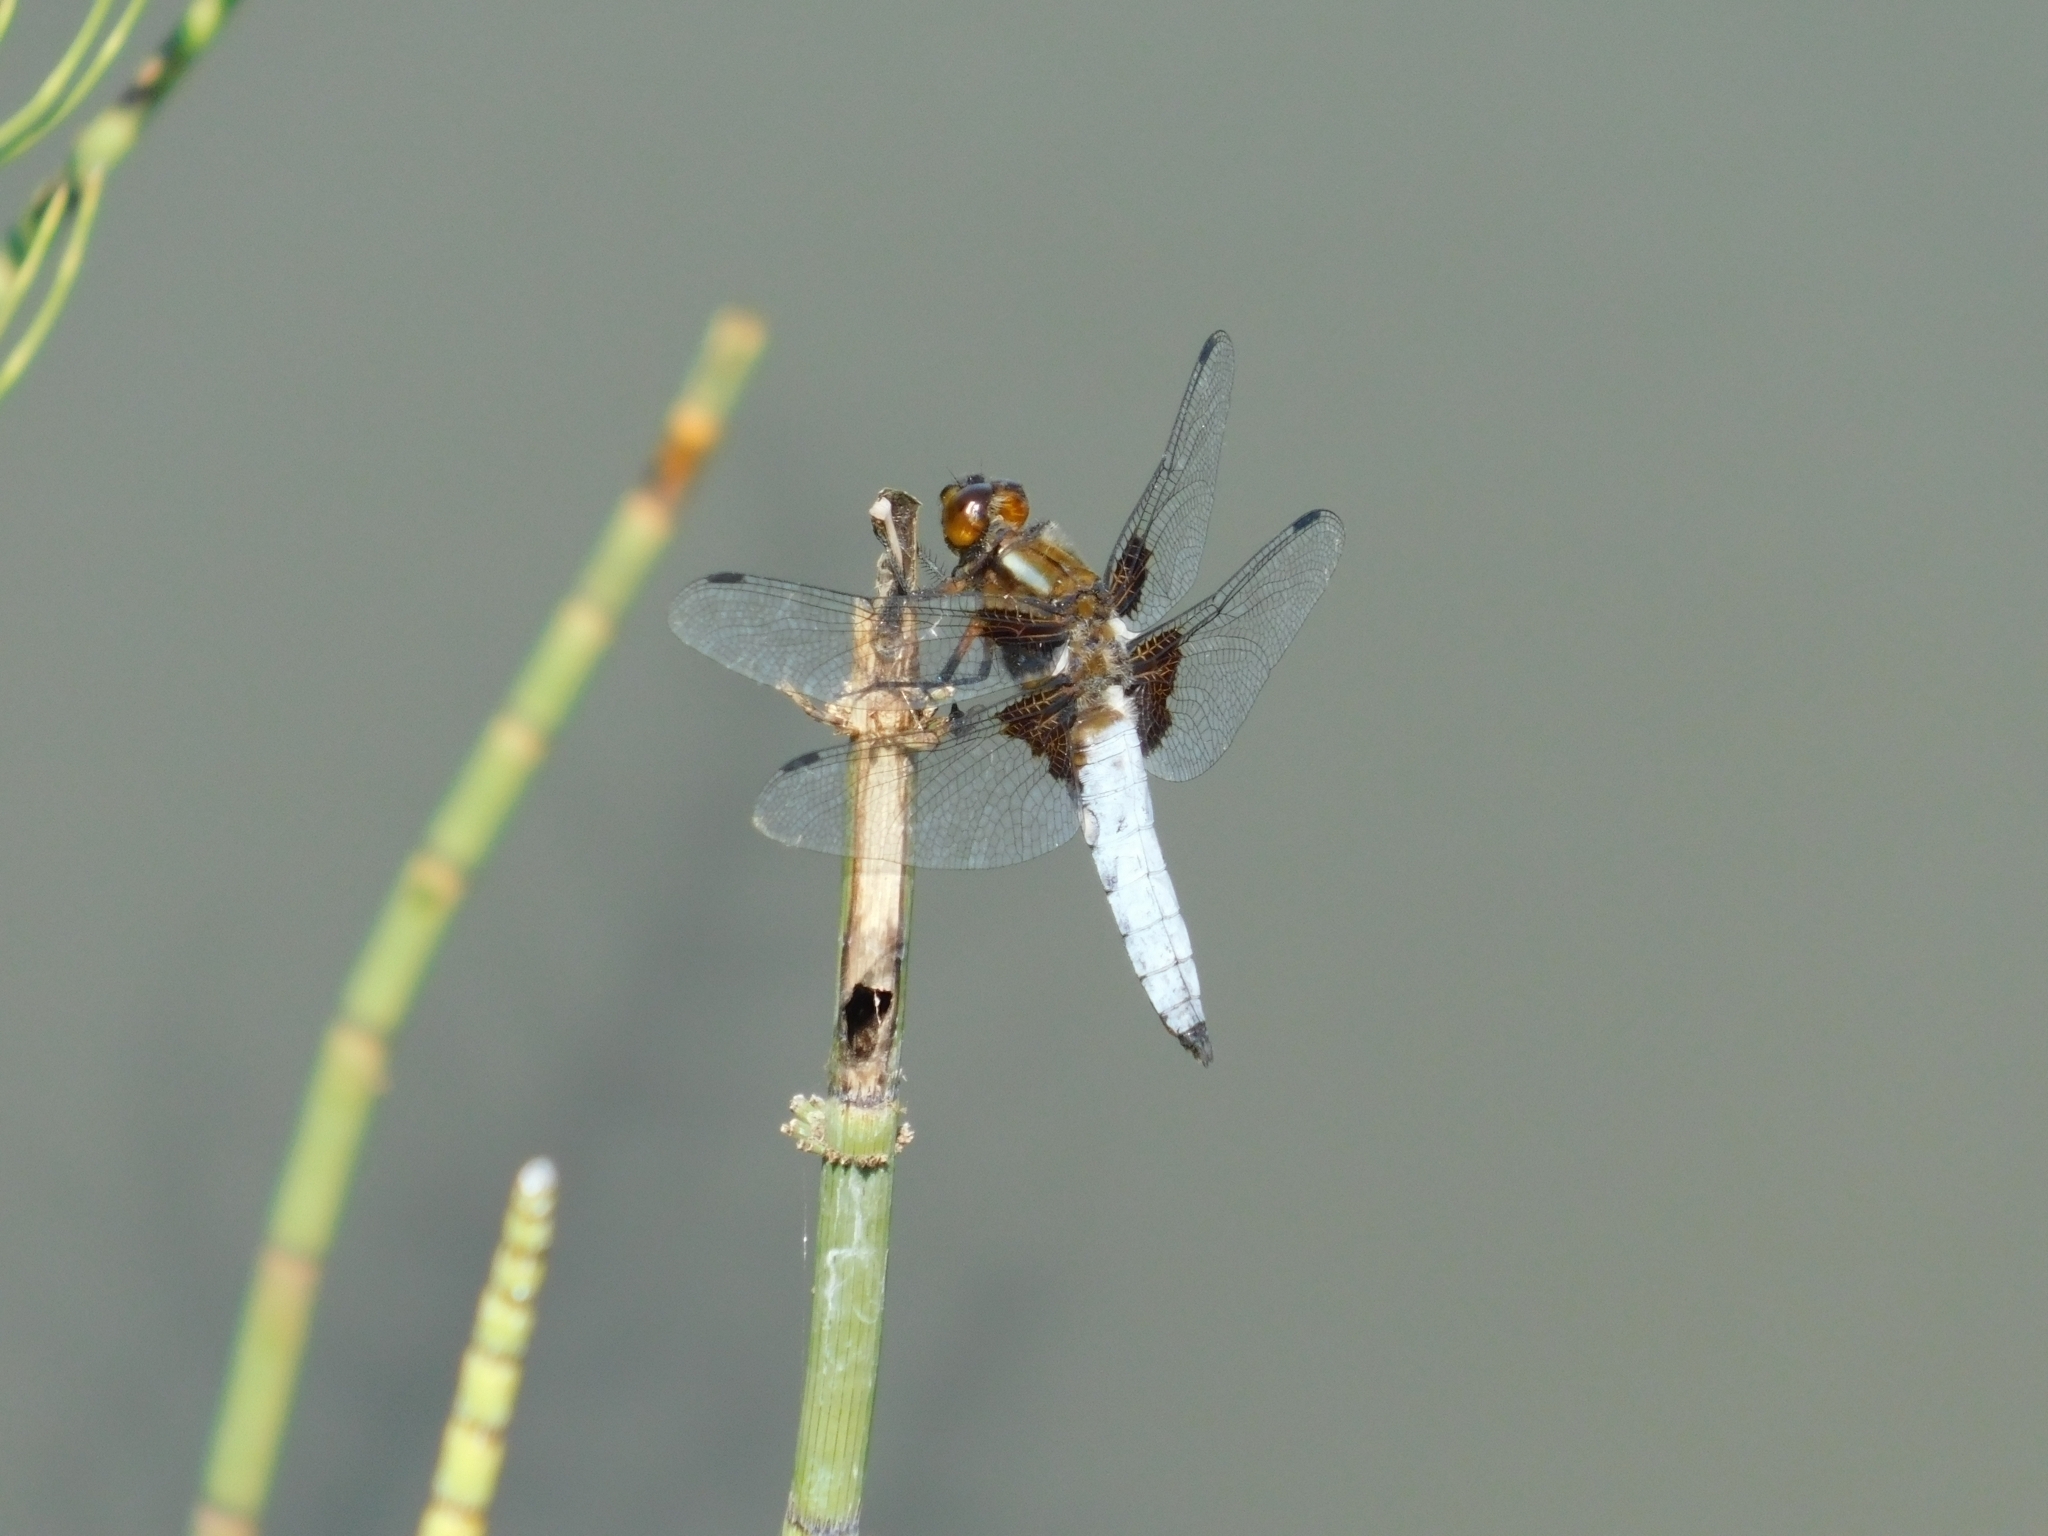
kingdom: Animalia
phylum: Arthropoda
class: Insecta
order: Odonata
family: Libellulidae
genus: Libellula
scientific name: Libellula depressa
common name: Broad-bodied chaser
